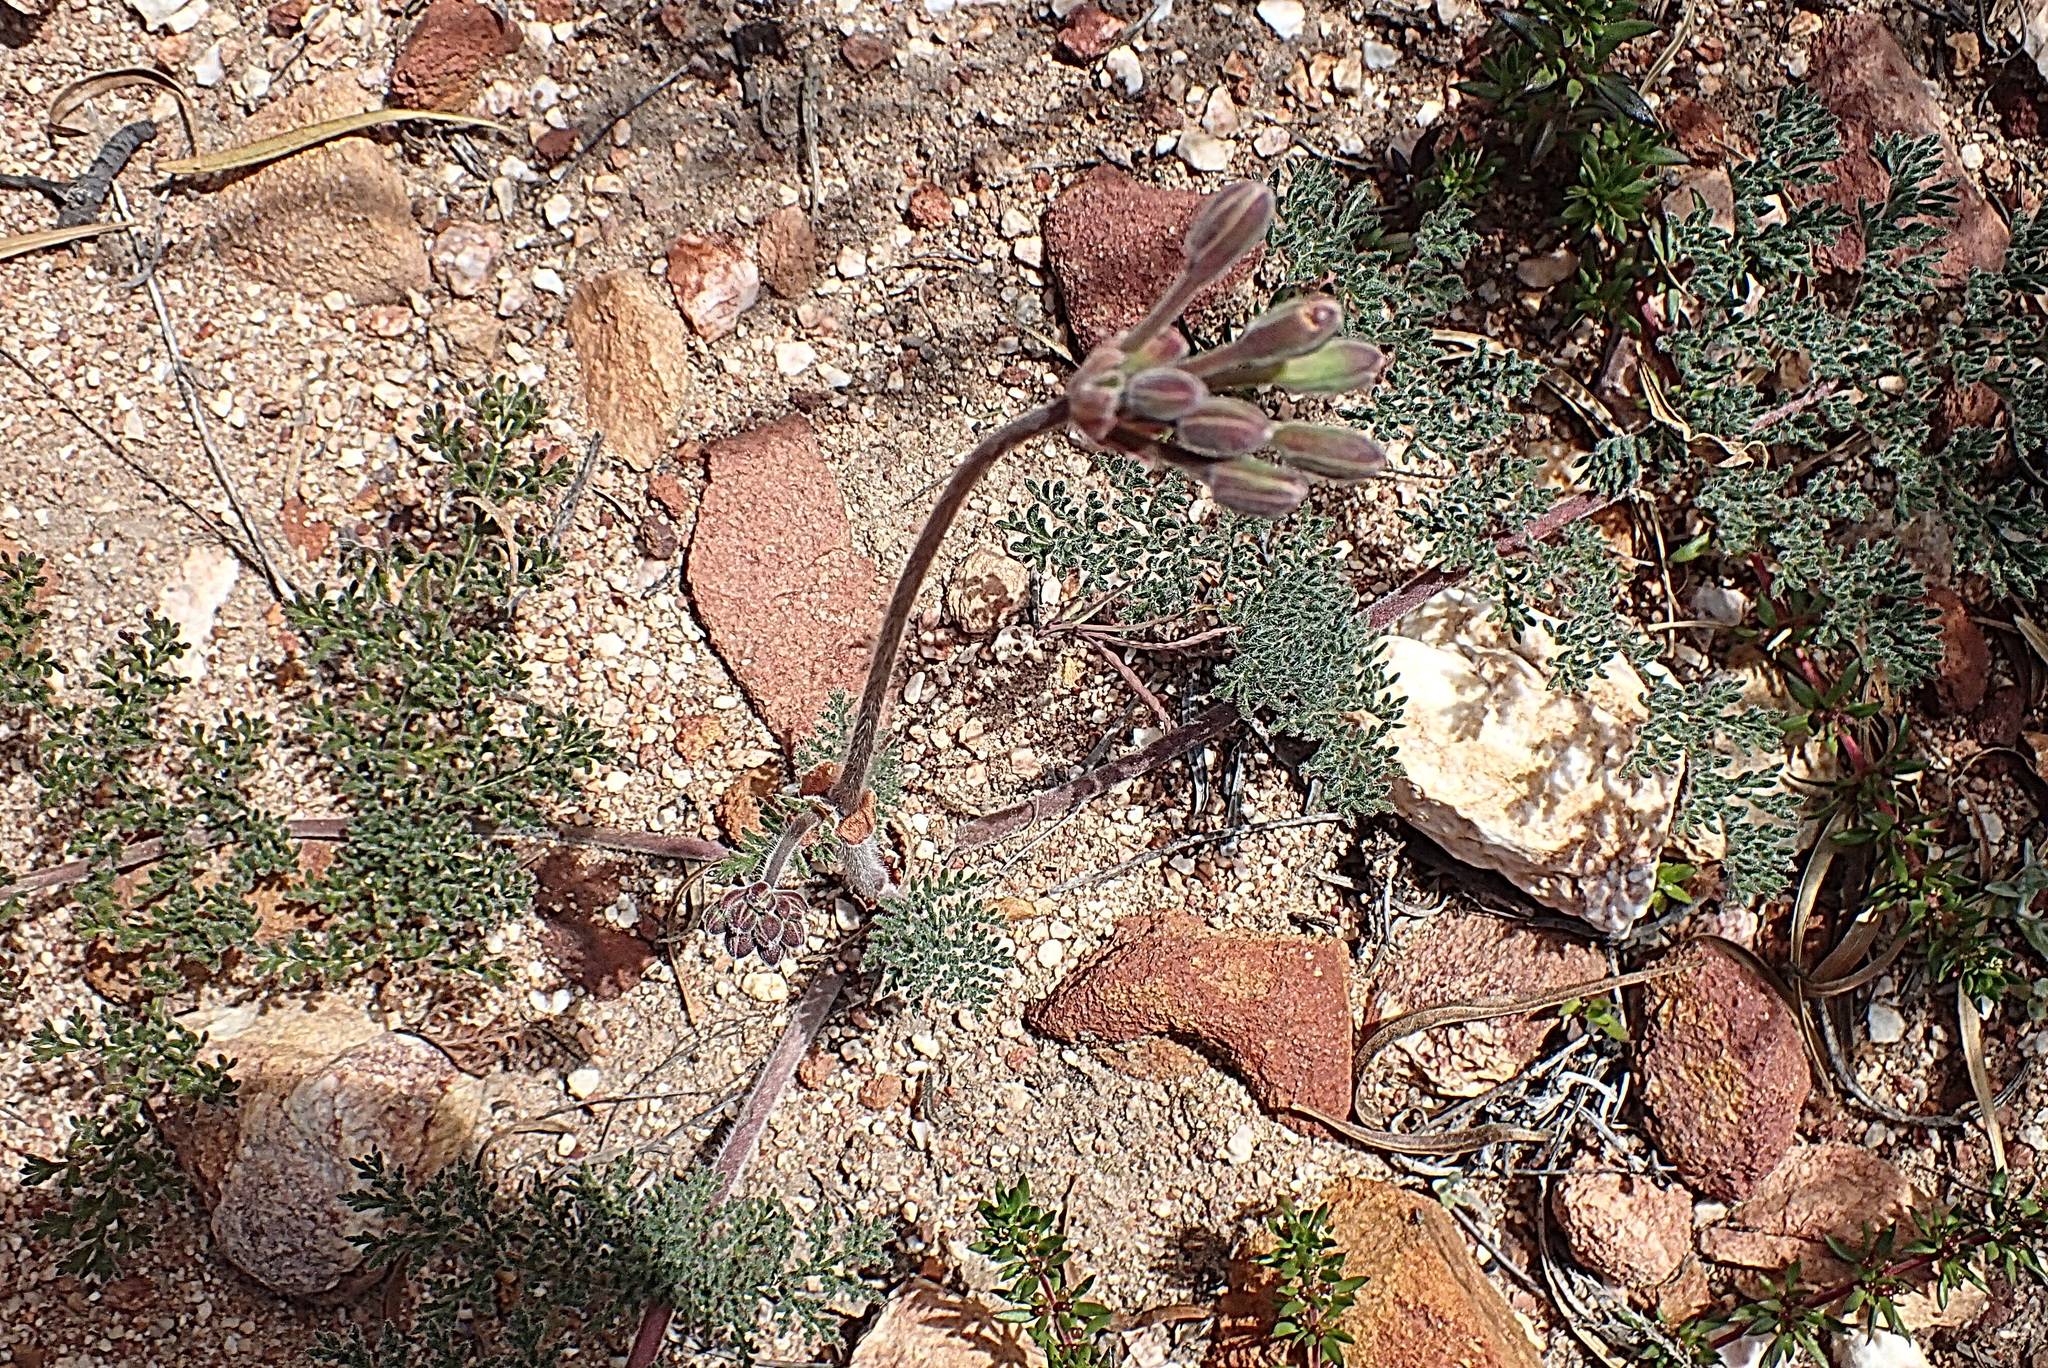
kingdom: Plantae
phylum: Tracheophyta
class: Magnoliopsida
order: Geraniales
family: Geraniaceae
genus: Pelargonium
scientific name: Pelargonium triste
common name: Night-scent pelargonium
